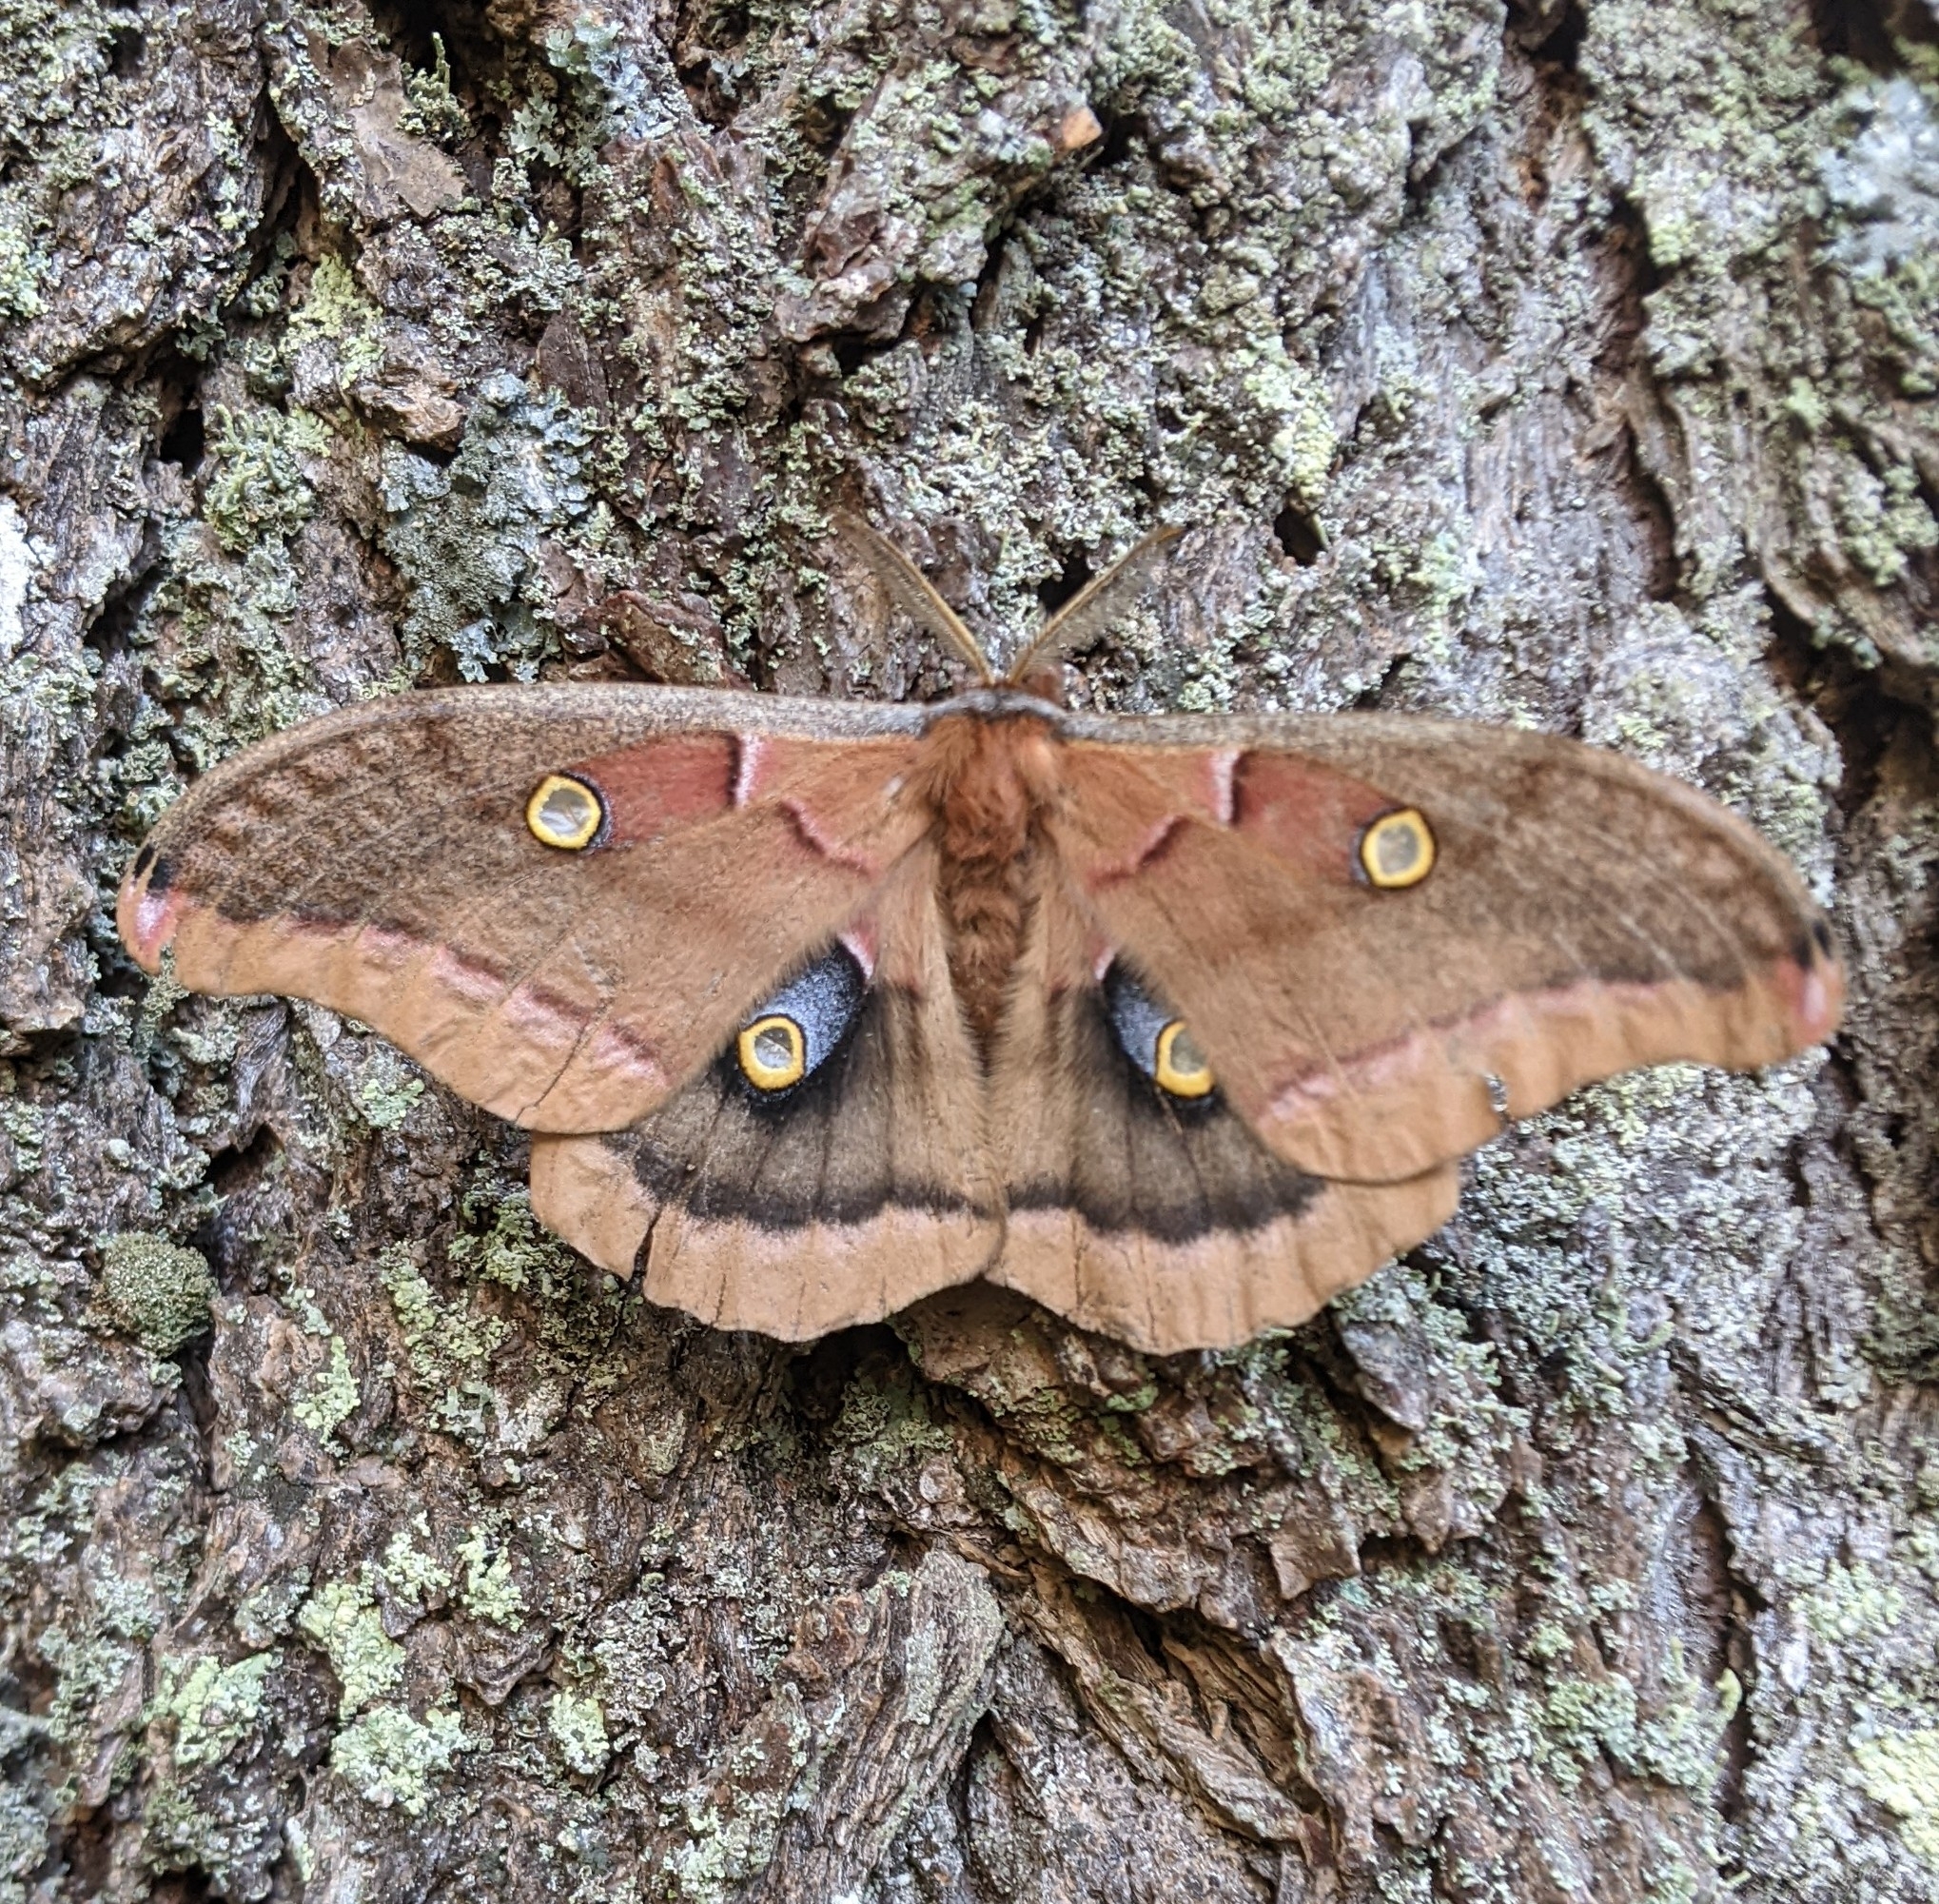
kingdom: Animalia
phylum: Arthropoda
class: Insecta
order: Lepidoptera
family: Saturniidae
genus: Antheraea
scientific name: Antheraea polyphemus
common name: Polyphemus moth
